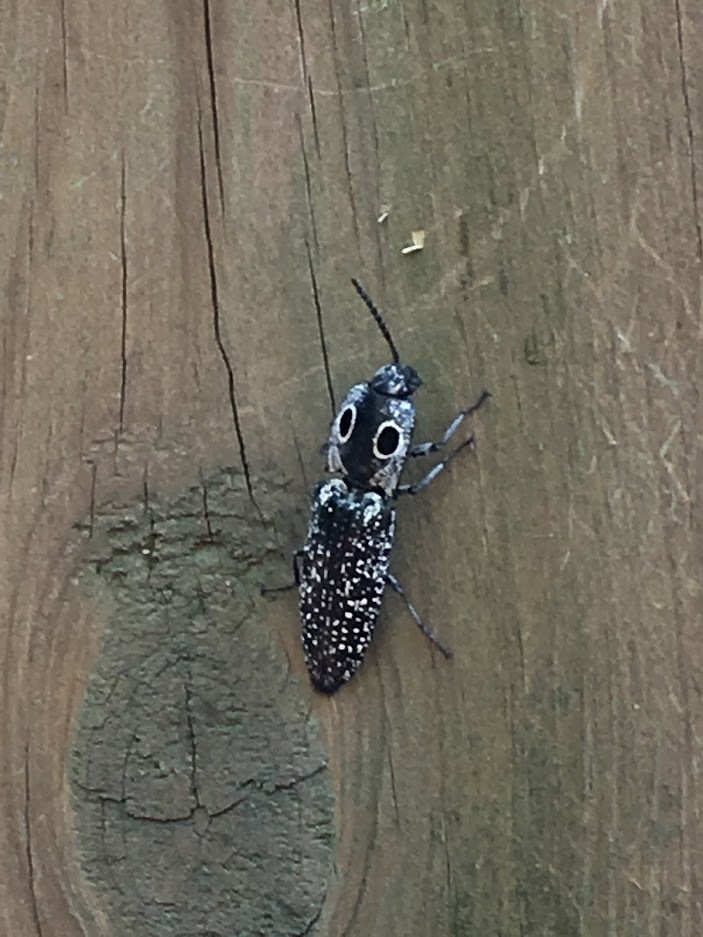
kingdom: Animalia
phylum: Arthropoda
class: Insecta
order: Coleoptera
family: Elateridae
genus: Alaus
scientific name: Alaus oculatus
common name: Eastern eyed click beetle
